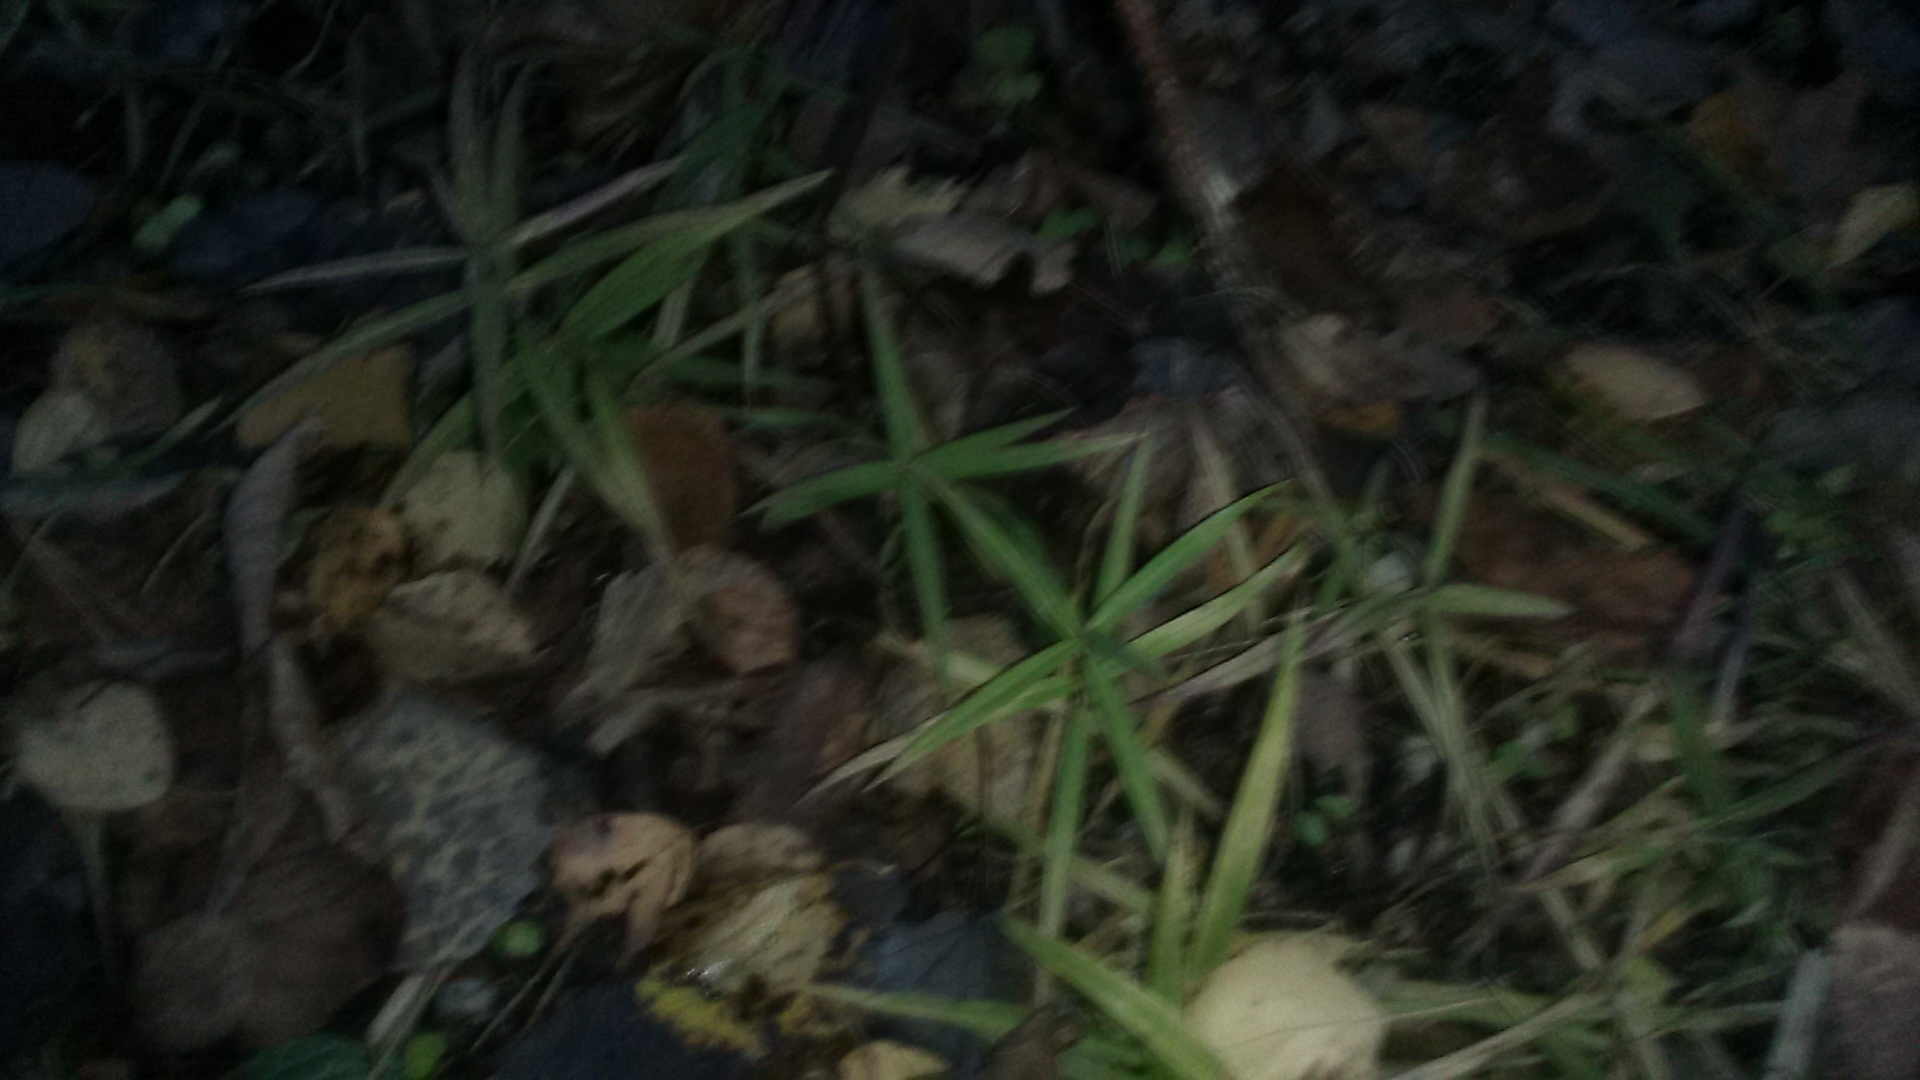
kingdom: Plantae
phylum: Tracheophyta
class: Magnoliopsida
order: Caryophyllales
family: Caryophyllaceae
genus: Rabelera
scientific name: Rabelera holostea
